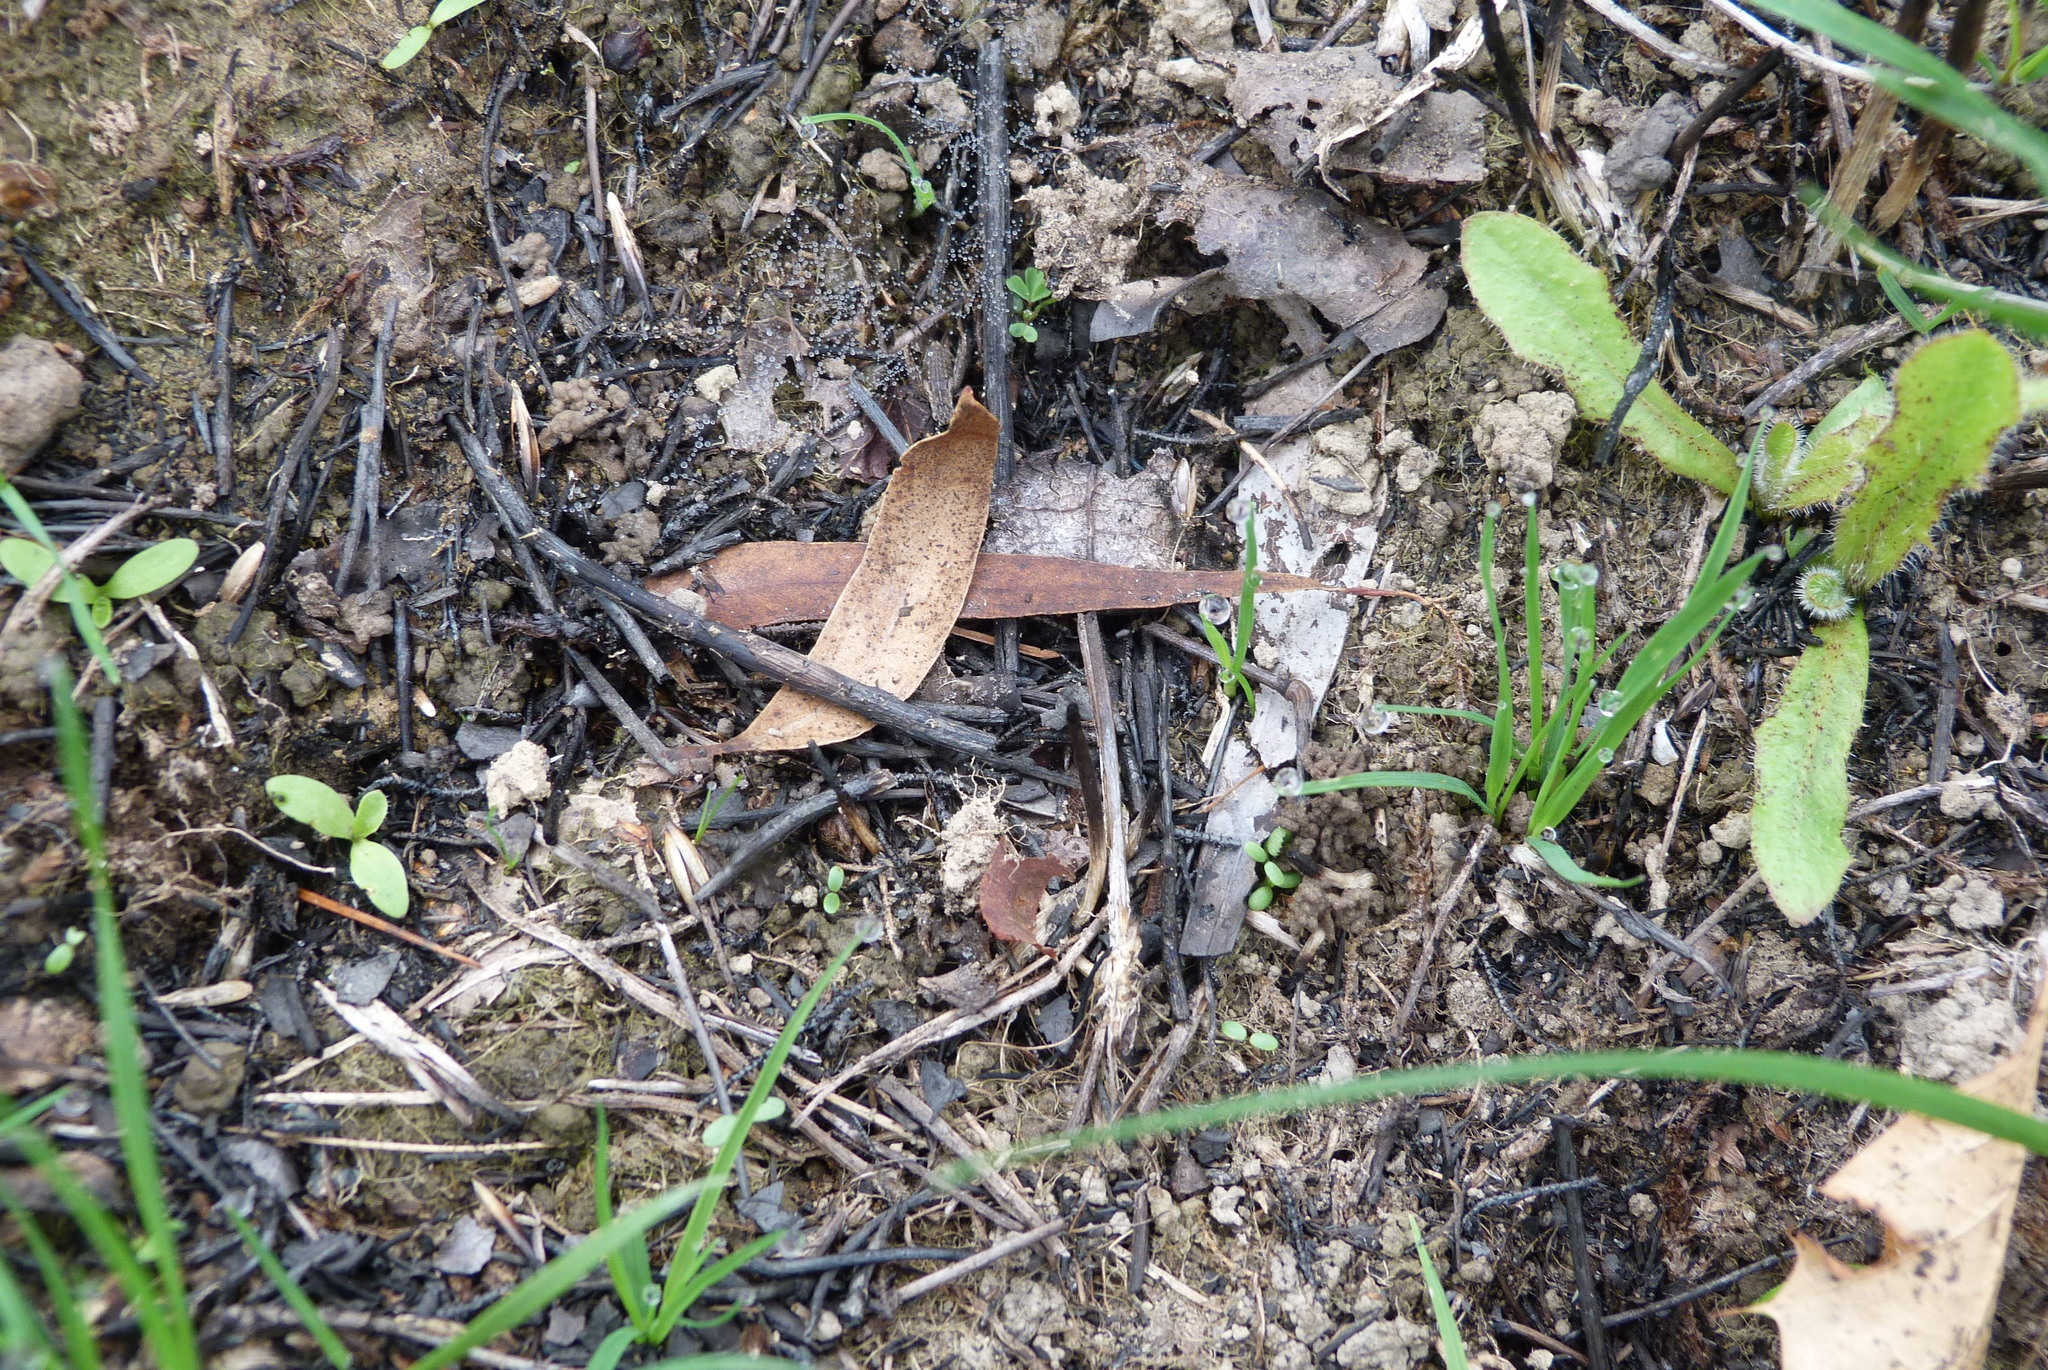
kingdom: Plantae
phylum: Tracheophyta
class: Magnoliopsida
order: Asterales
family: Asteraceae
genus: Hypochaeris
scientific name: Hypochaeris radicata
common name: Flatweed
